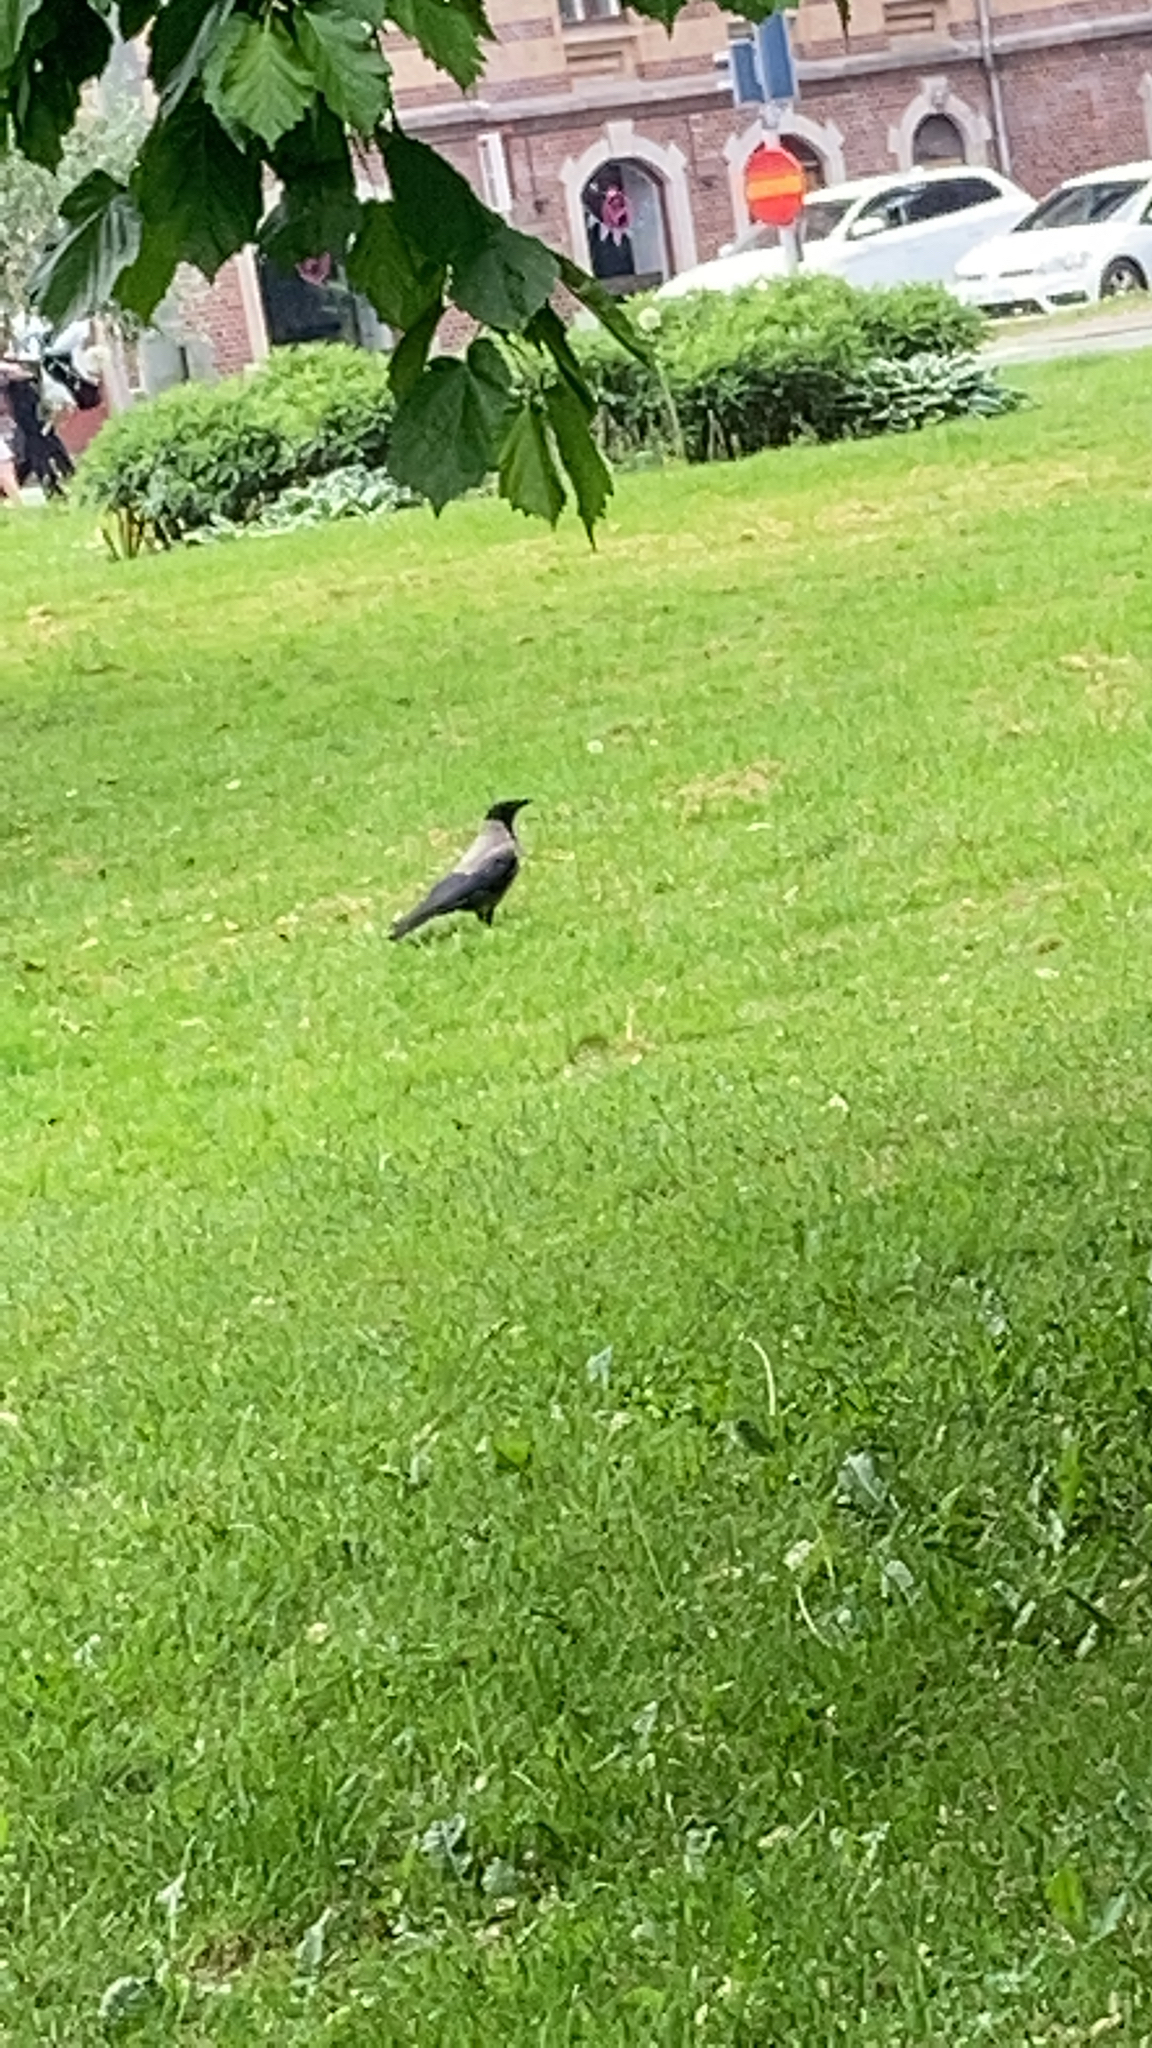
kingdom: Animalia
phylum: Chordata
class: Aves
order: Passeriformes
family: Corvidae
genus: Corvus
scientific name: Corvus cornix
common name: Hooded crow
